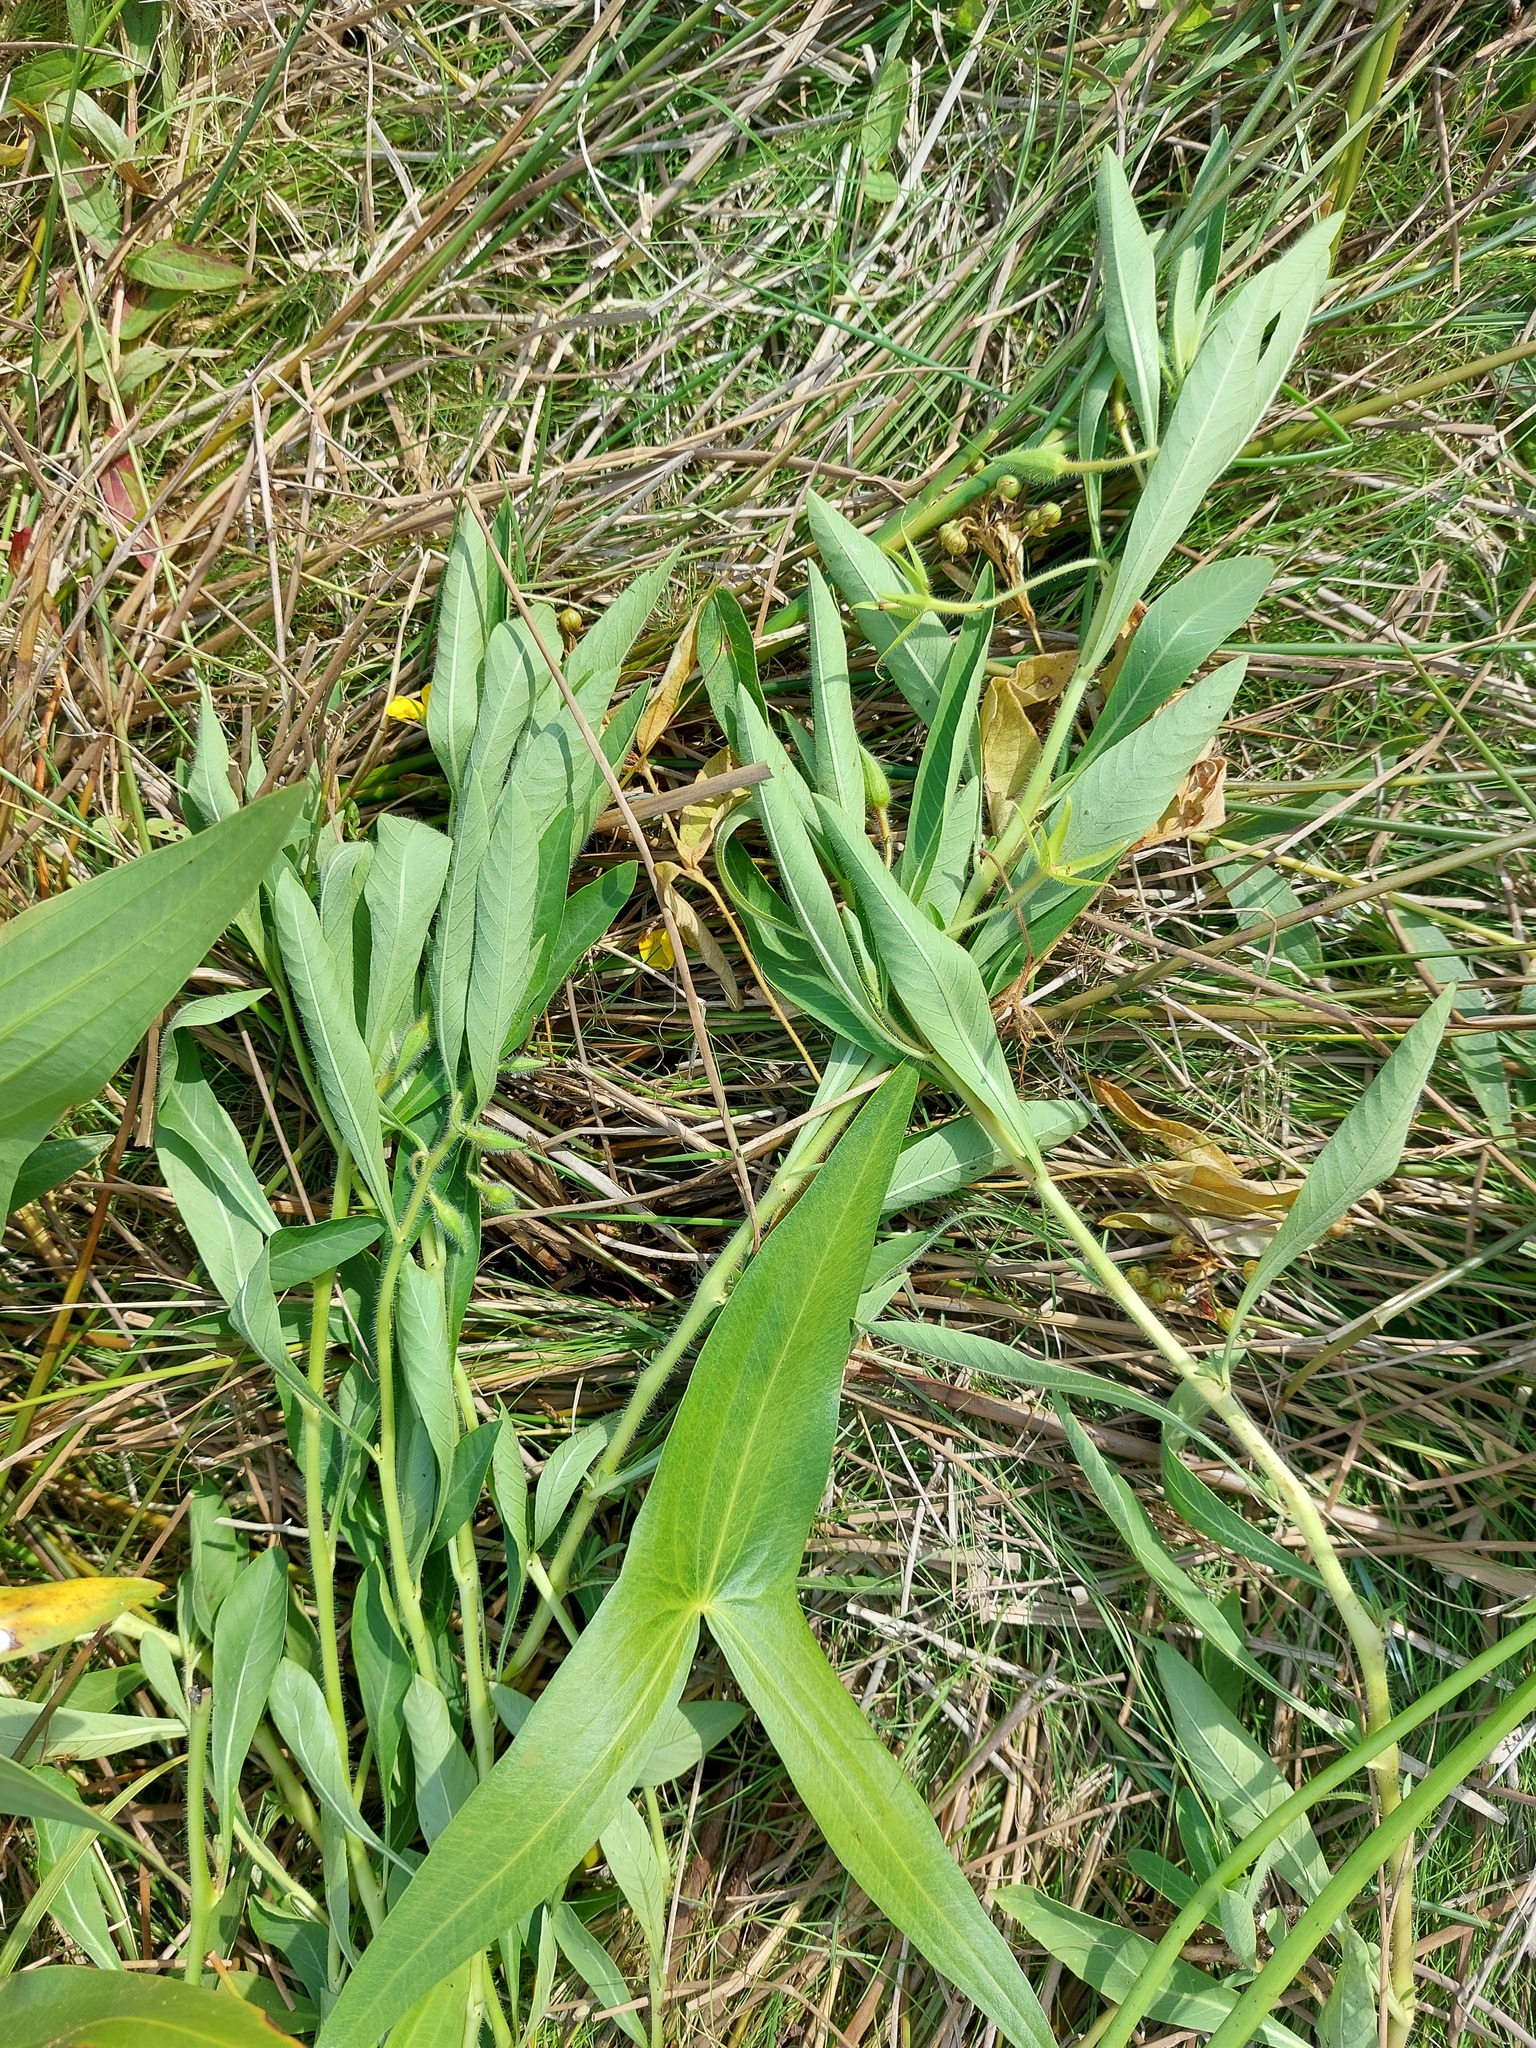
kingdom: Plantae
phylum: Tracheophyta
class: Magnoliopsida
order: Myrtales
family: Onagraceae
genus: Ludwigia
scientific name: Ludwigia grandiflora
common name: Water primrose
